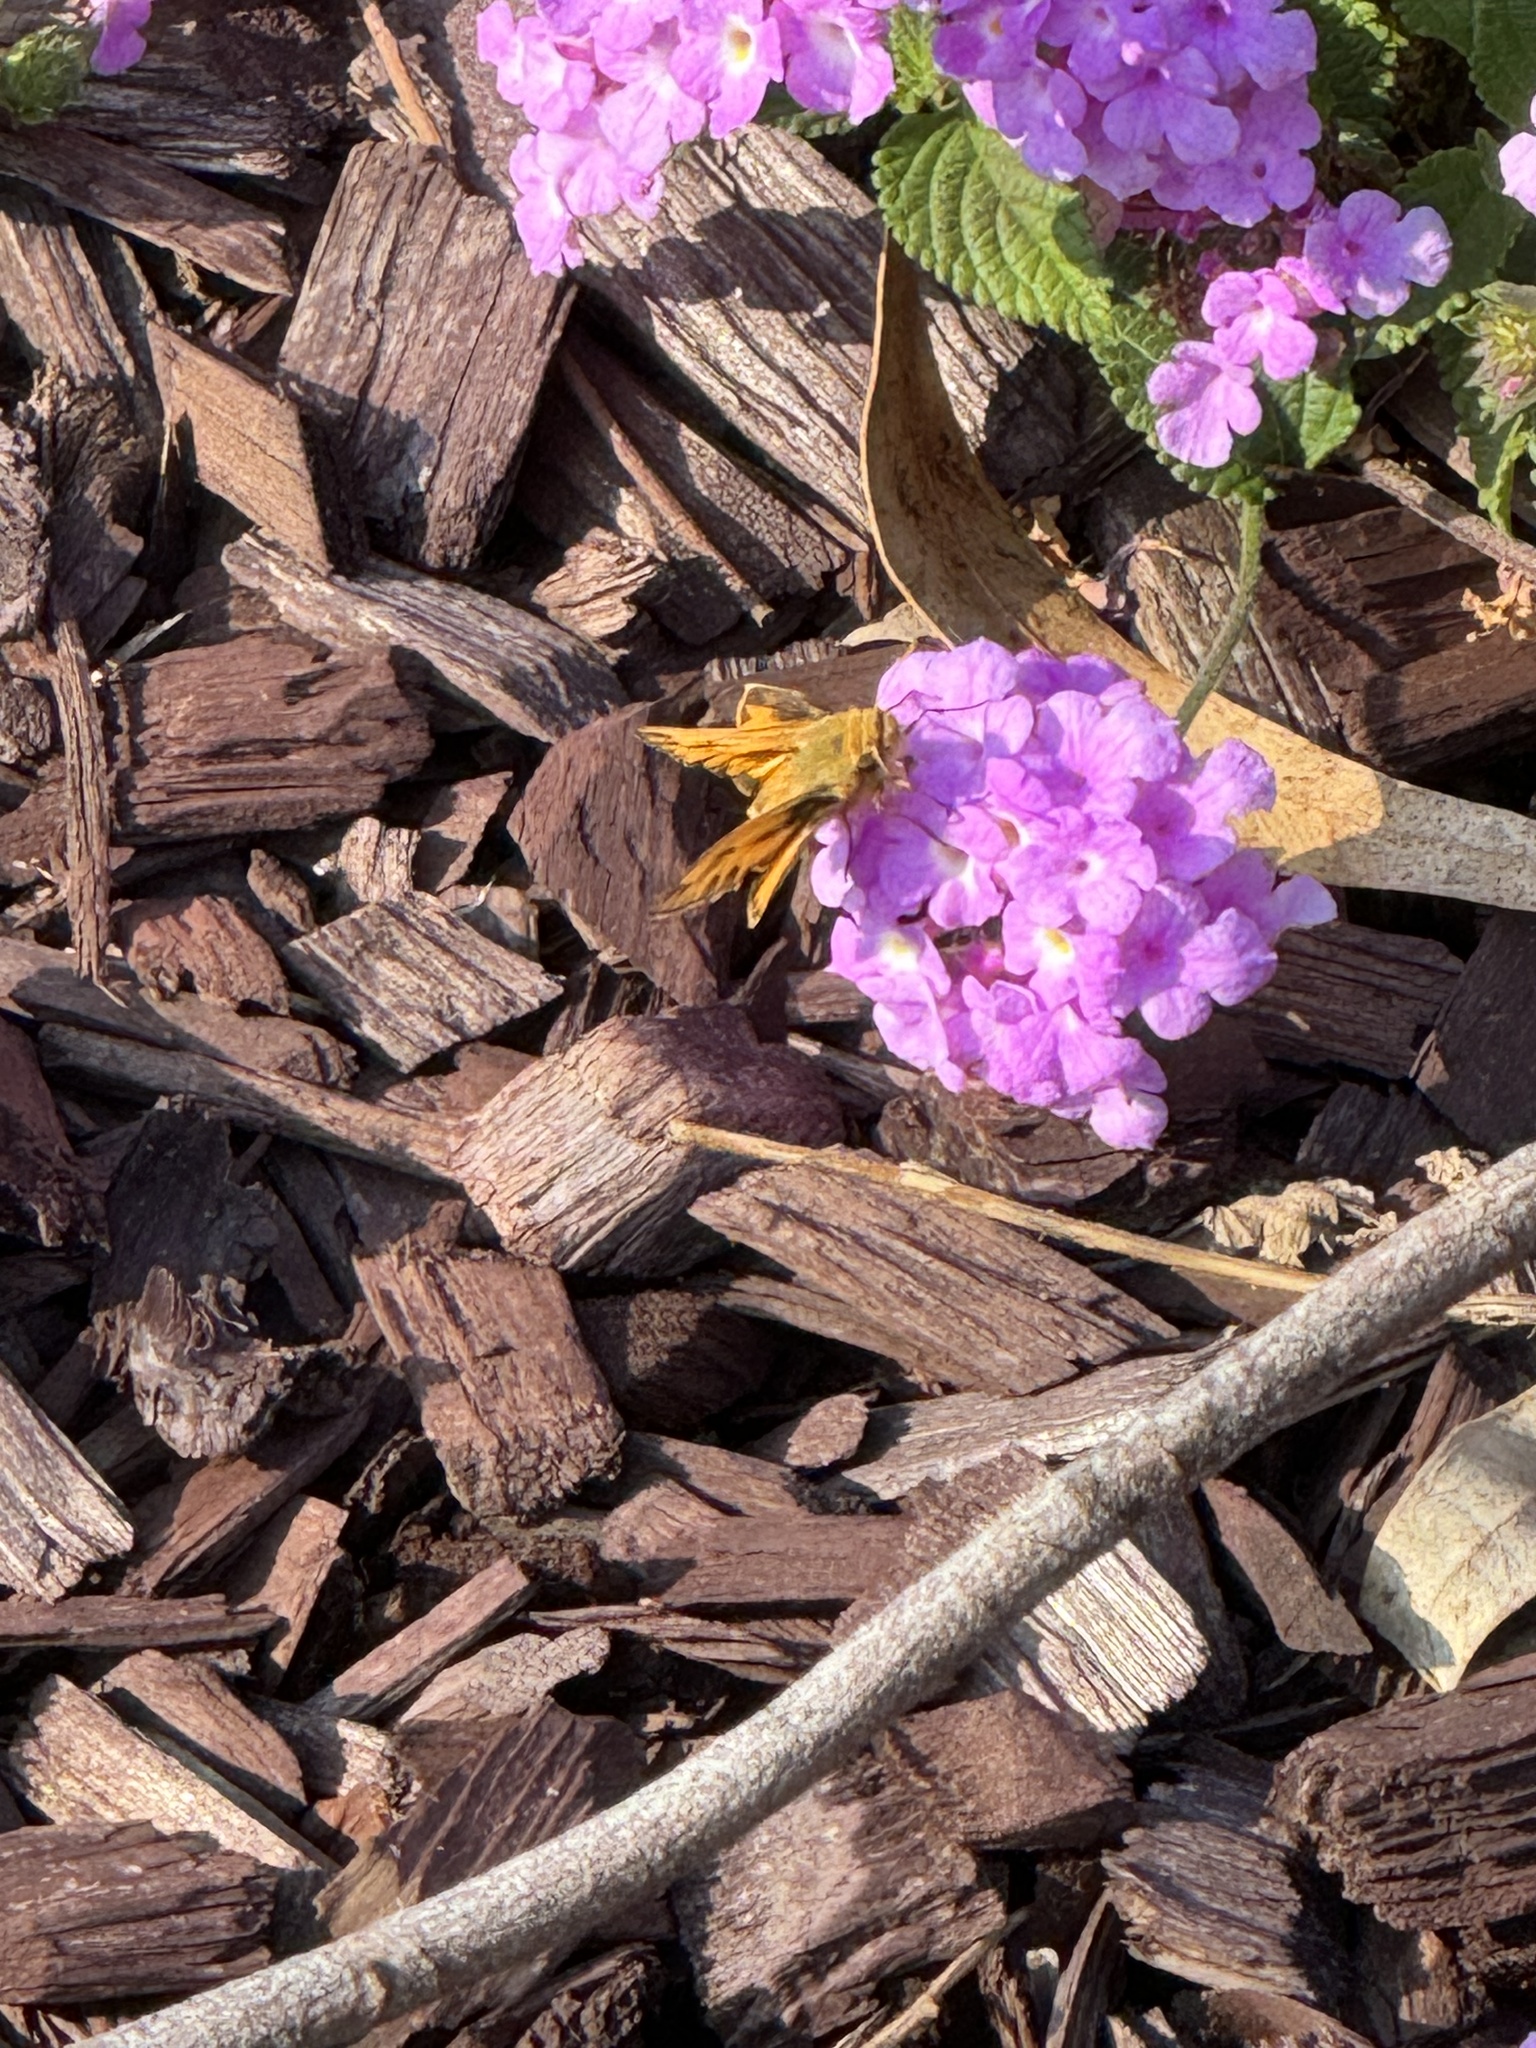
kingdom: Animalia
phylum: Arthropoda
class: Insecta
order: Lepidoptera
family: Hesperiidae
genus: Hylephila
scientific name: Hylephila phyleus
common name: Fiery skipper
